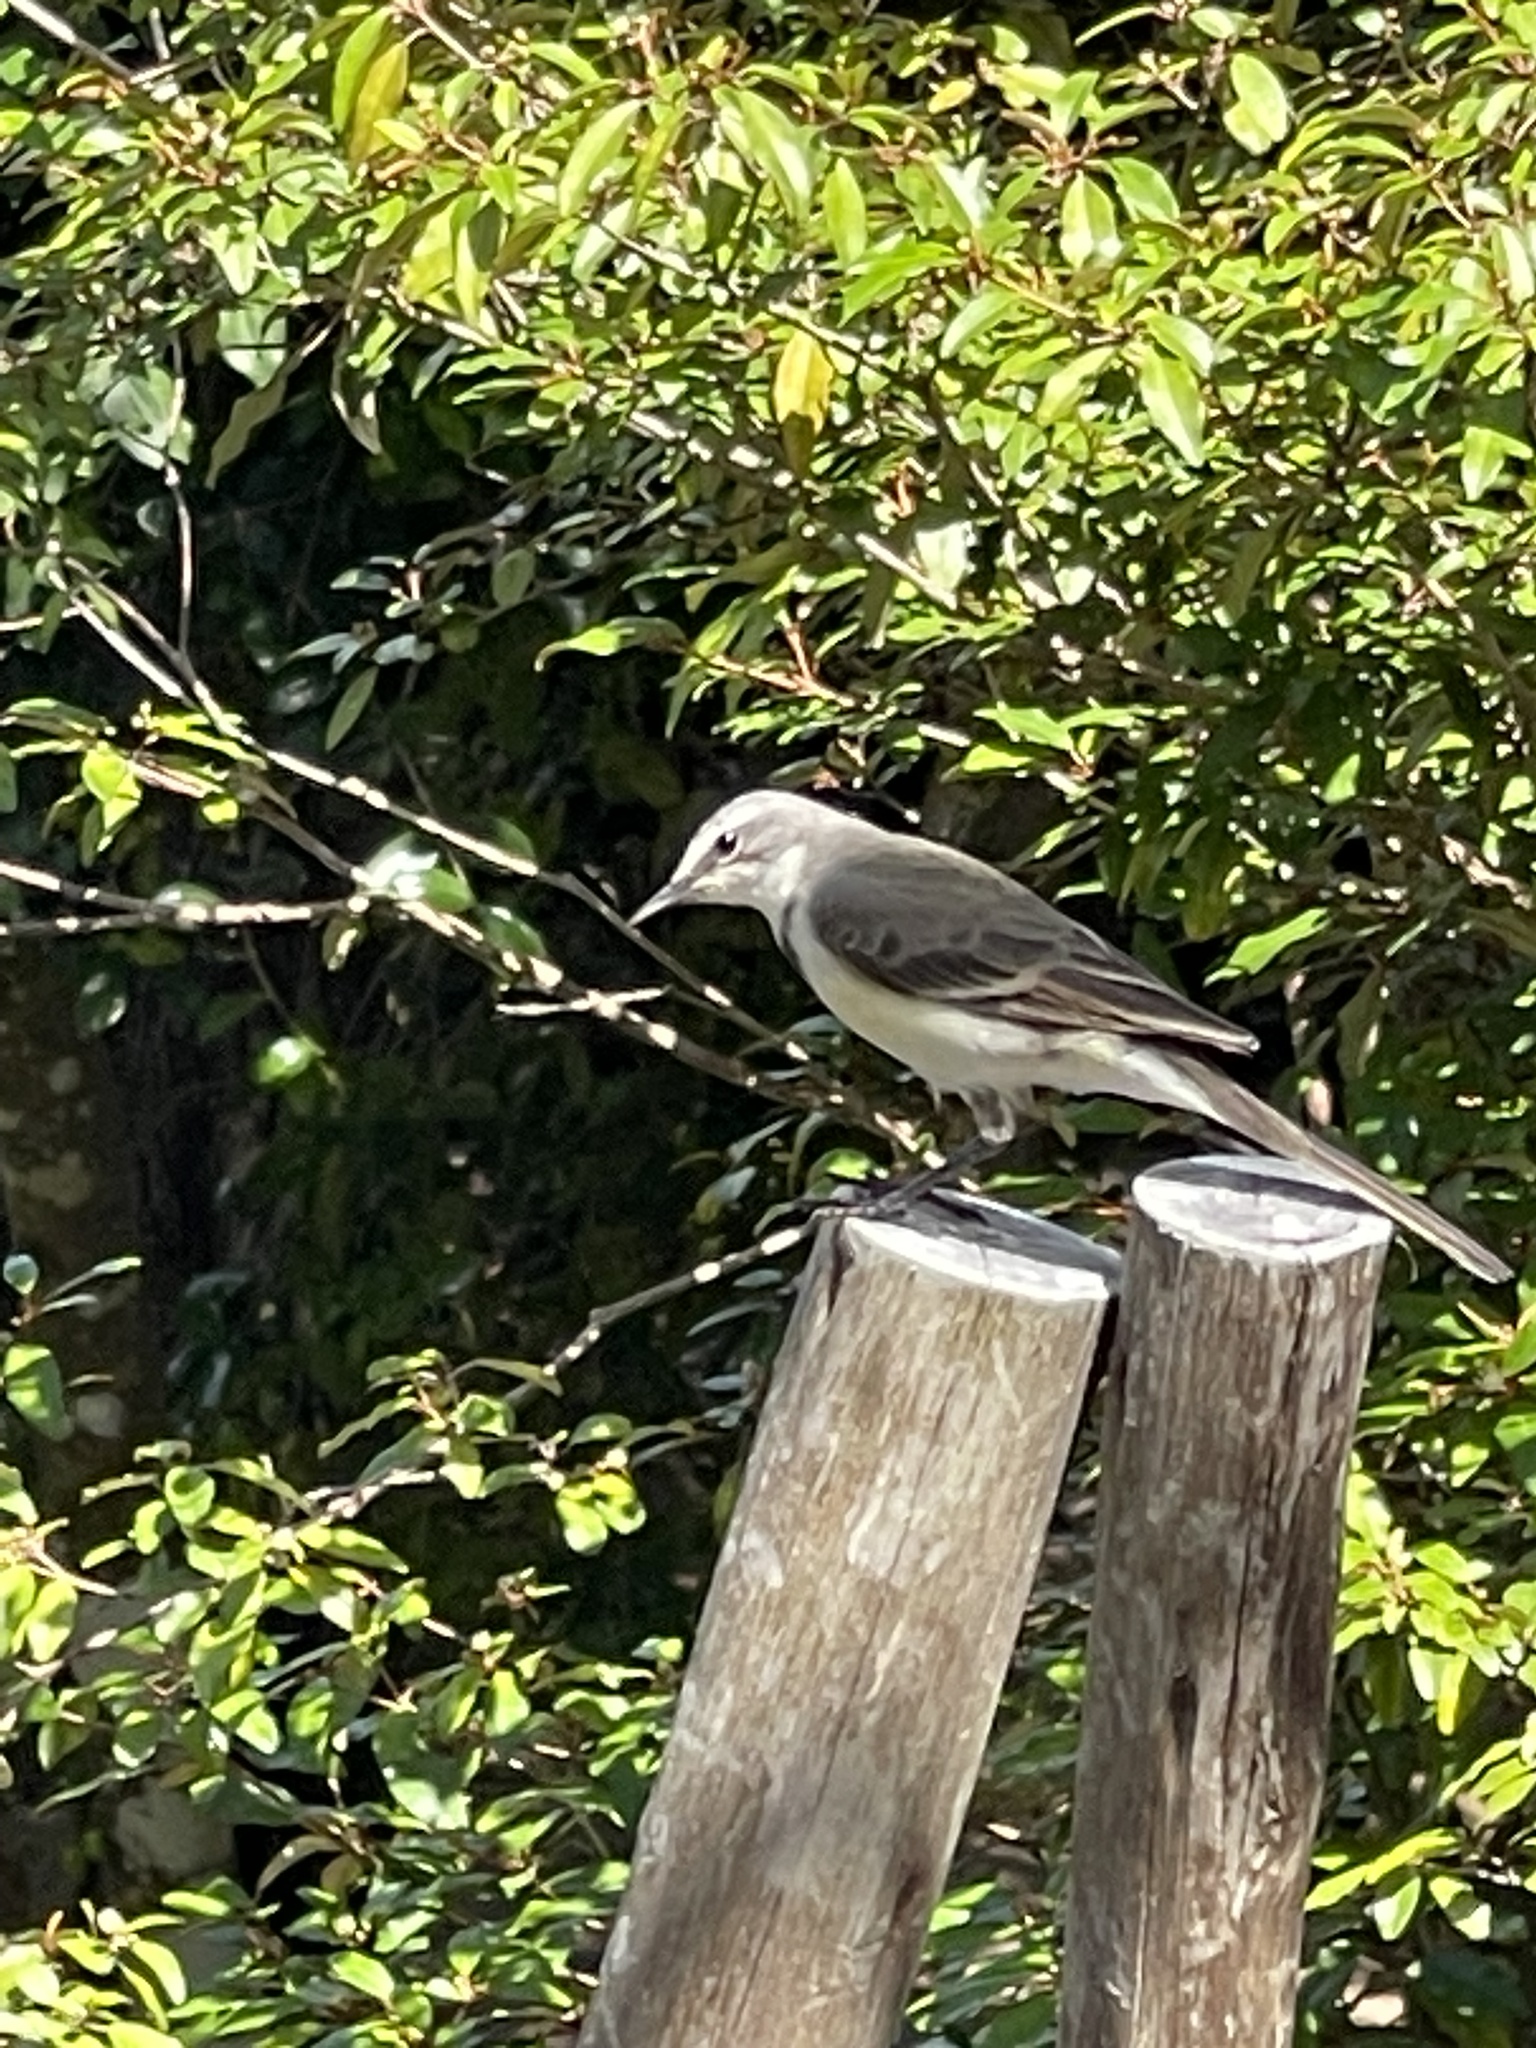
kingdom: Animalia
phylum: Chordata
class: Aves
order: Passeriformes
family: Motacillidae
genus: Motacilla
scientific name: Motacilla capensis
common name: Cape wagtail
